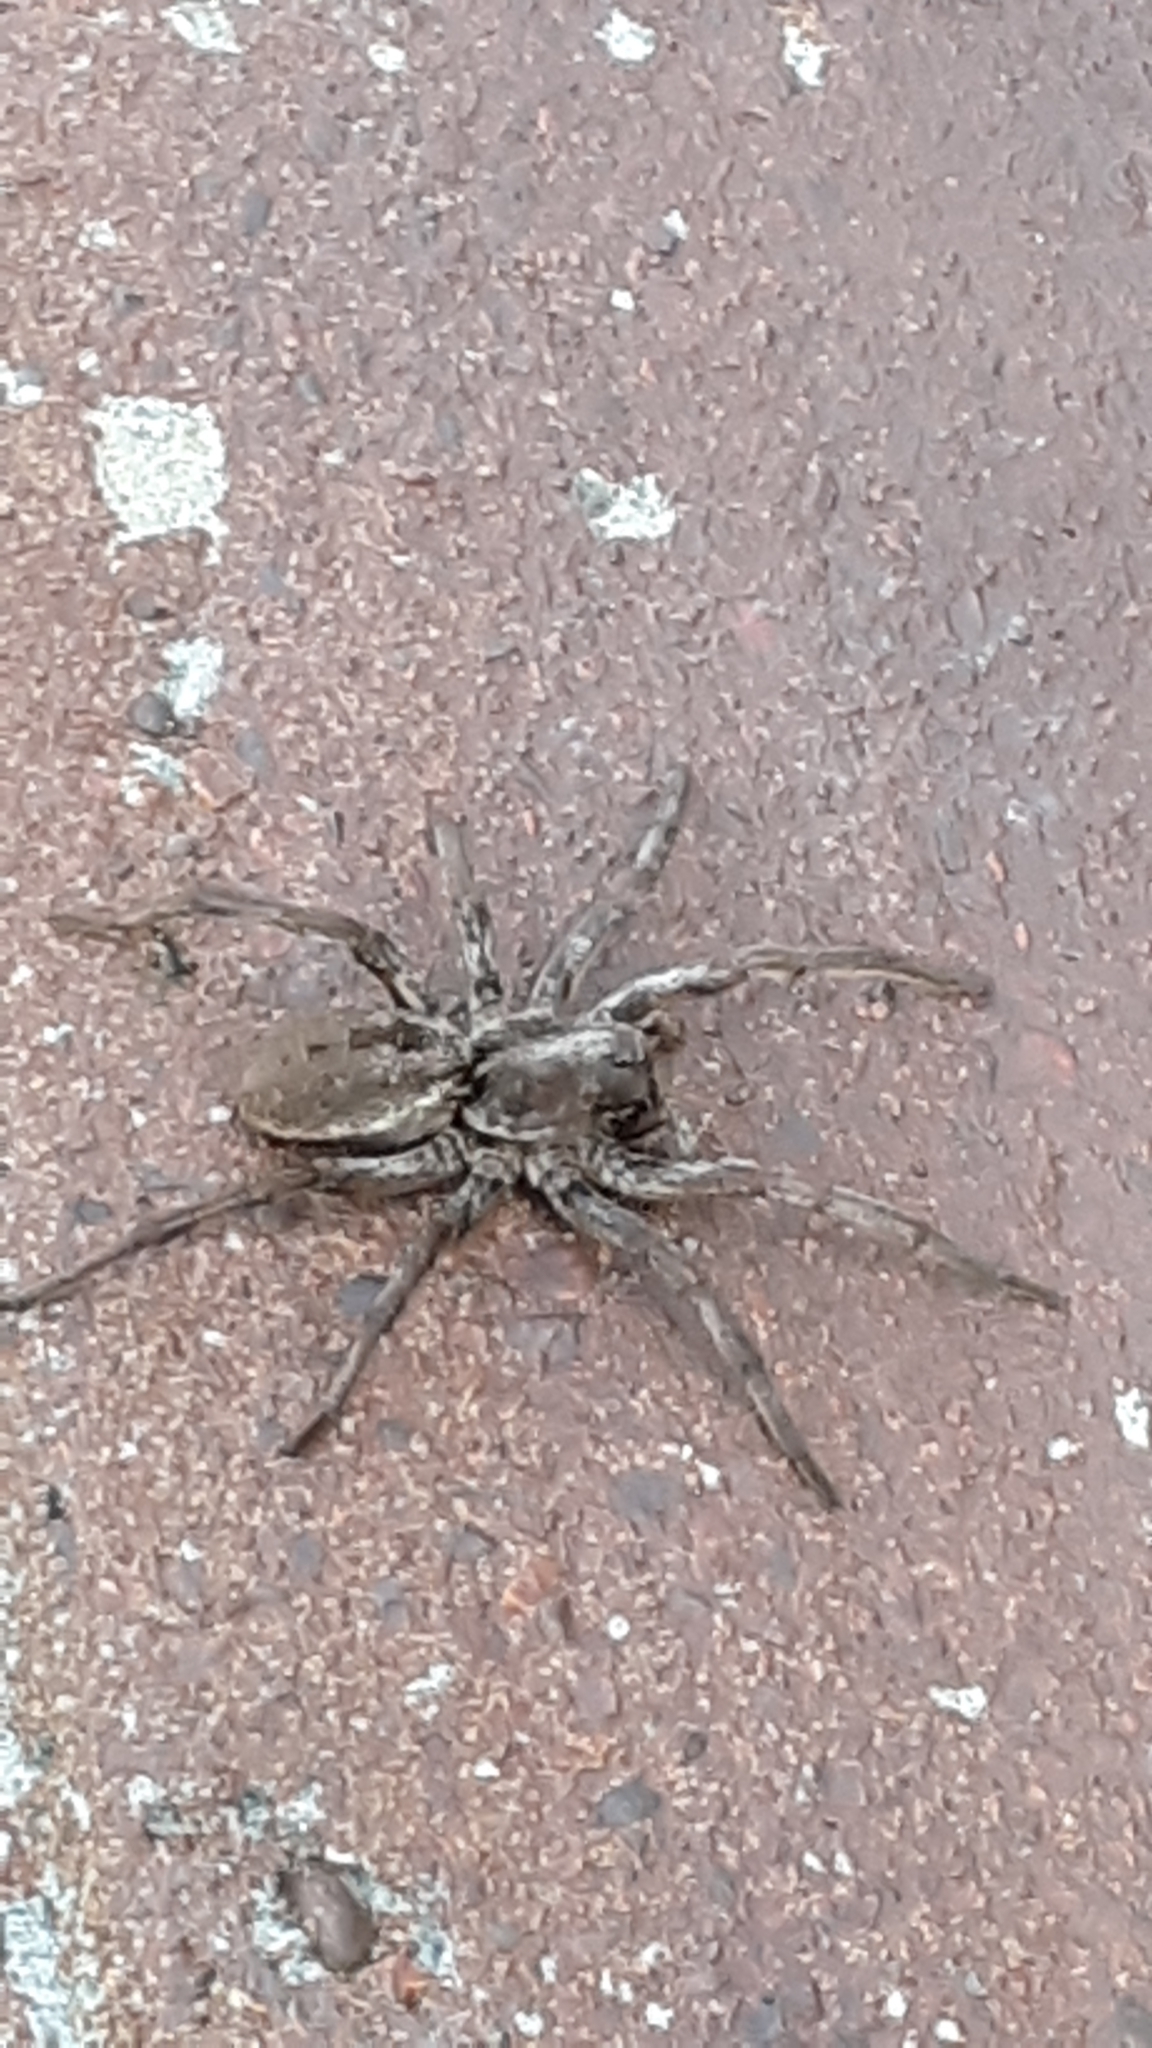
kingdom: Animalia
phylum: Arthropoda
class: Arachnida
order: Araneae
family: Lycosidae
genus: Hogna
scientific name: Hogna carolinensis
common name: Carolina wolf spider
